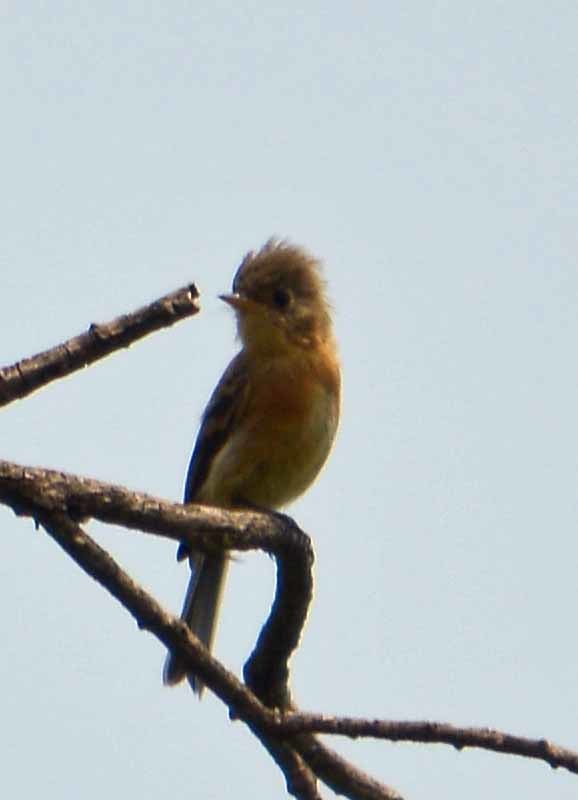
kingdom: Animalia
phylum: Chordata
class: Aves
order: Passeriformes
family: Tyrannidae
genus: Empidonax
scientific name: Empidonax fulvifrons
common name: Buff-breasted flycatcher
